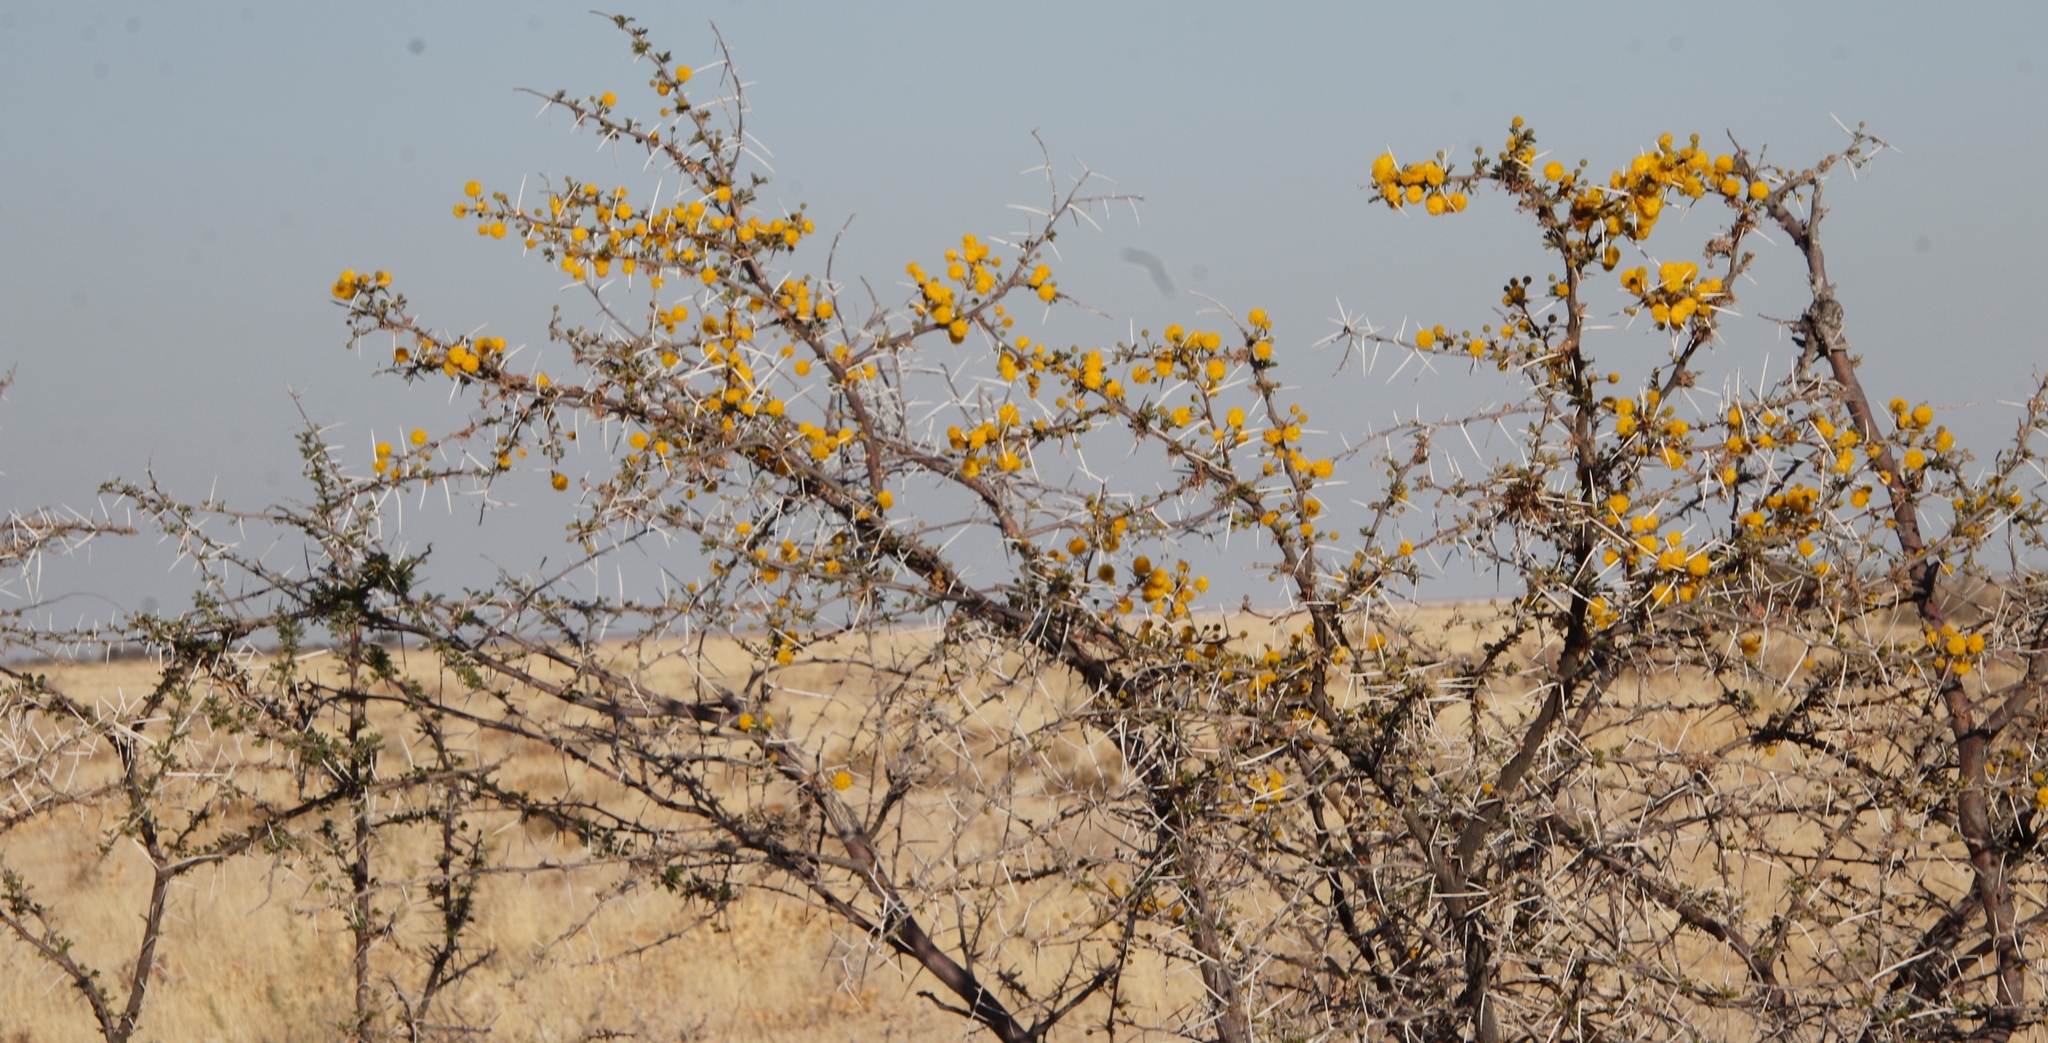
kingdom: Plantae
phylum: Tracheophyta
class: Magnoliopsida
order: Fabales
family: Fabaceae
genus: Vachellia
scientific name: Vachellia nebrownii
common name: Water acacia
